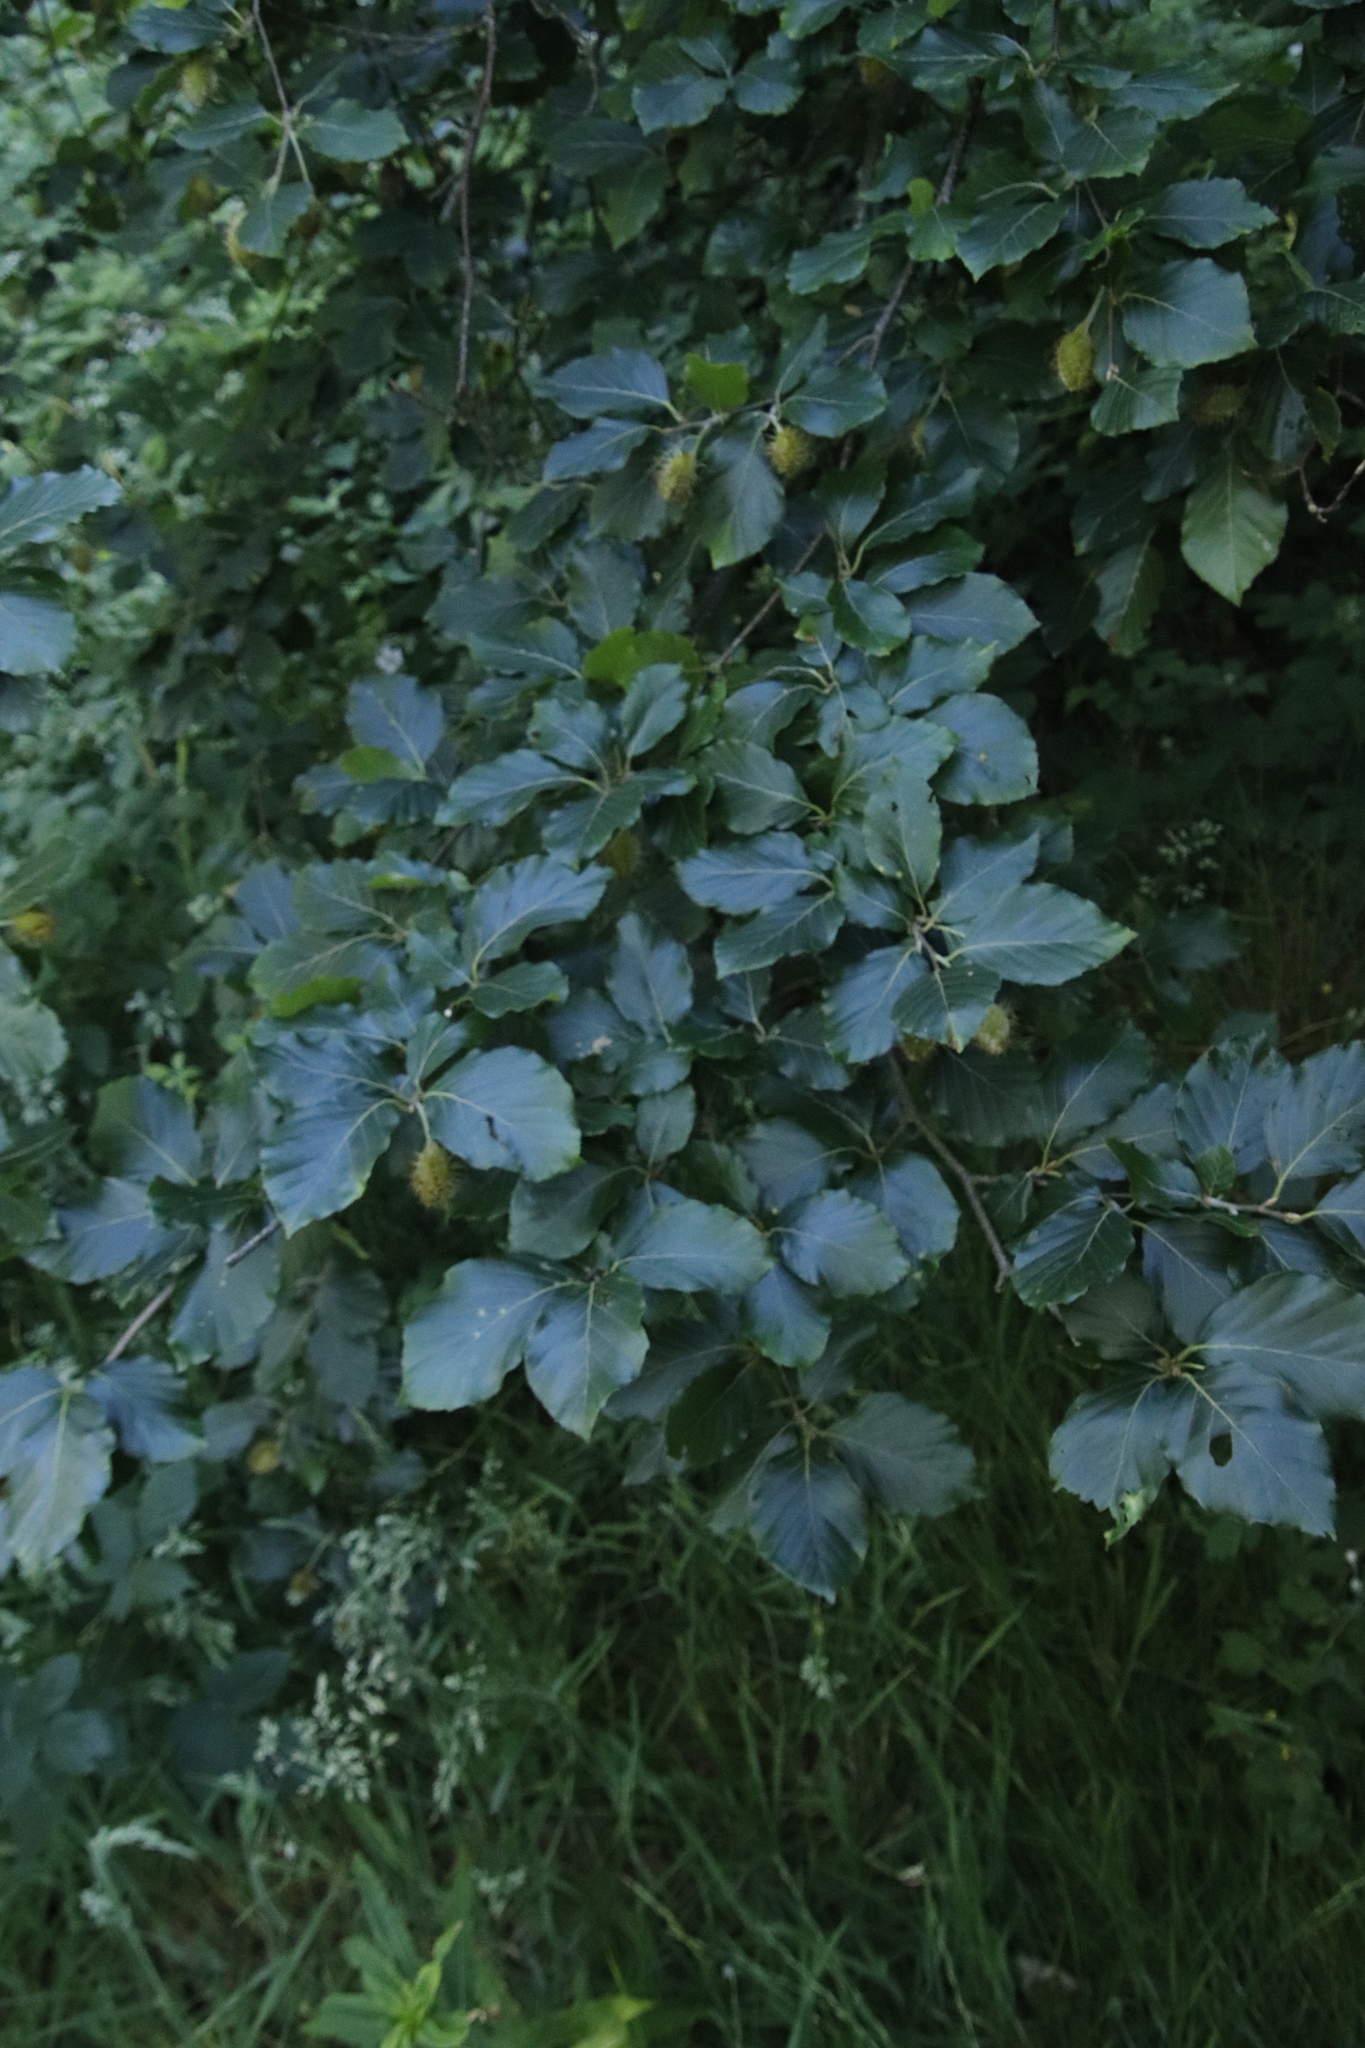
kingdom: Plantae
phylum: Tracheophyta
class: Magnoliopsida
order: Fagales
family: Fagaceae
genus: Fagus
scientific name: Fagus sylvatica
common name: Beech
